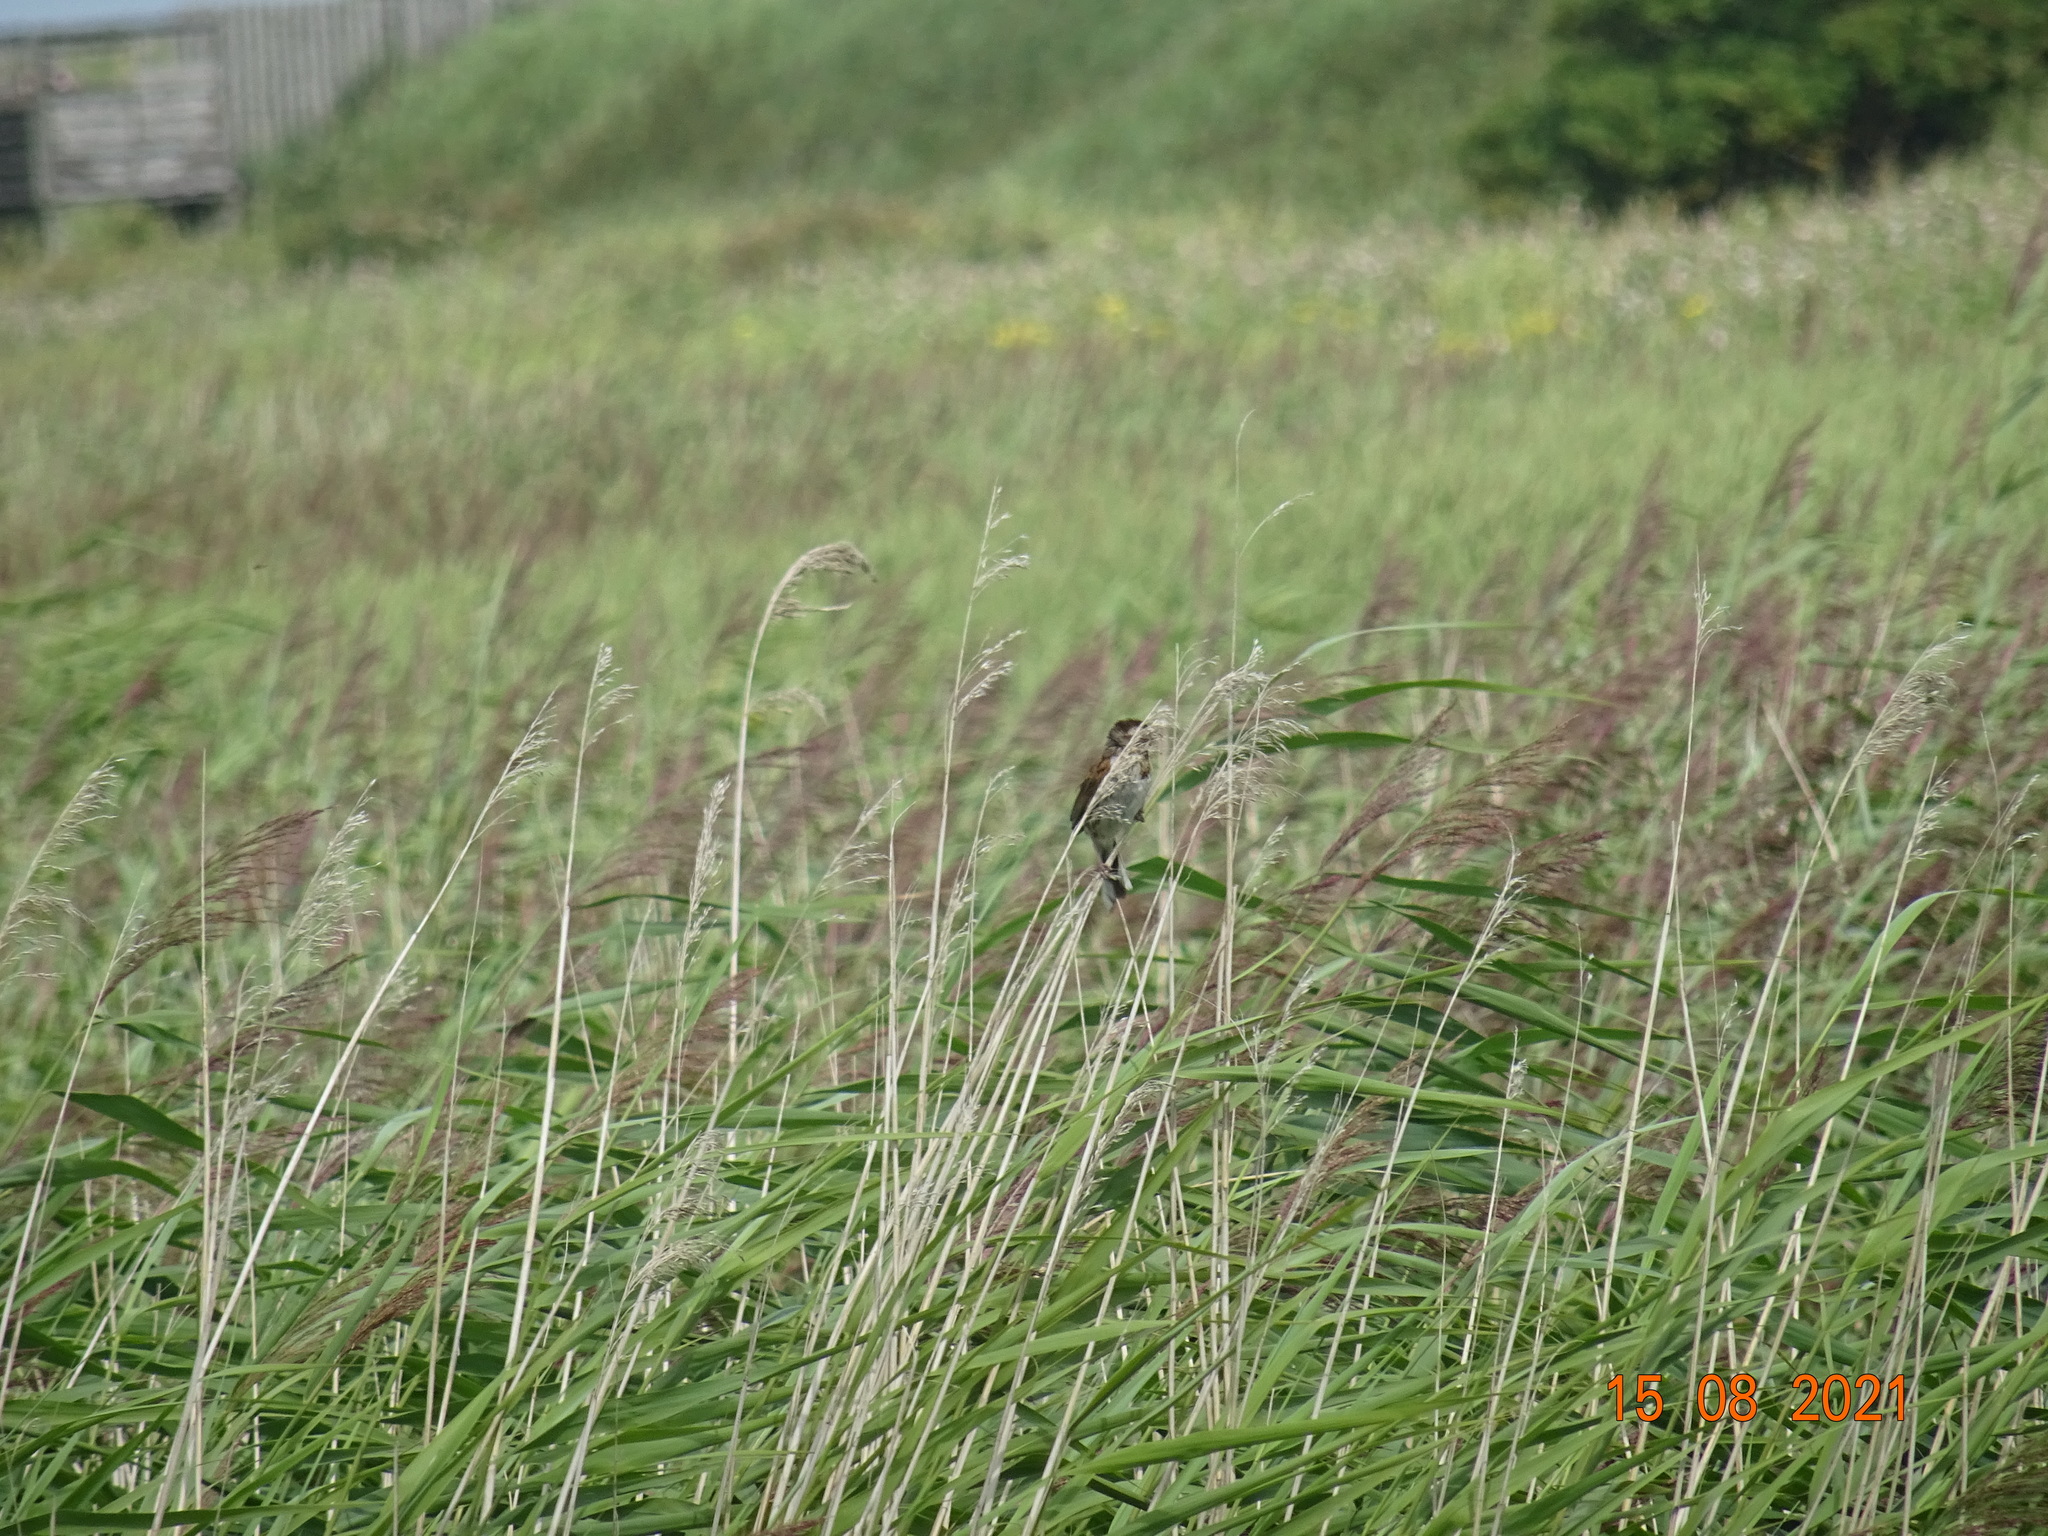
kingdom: Animalia
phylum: Chordata
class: Aves
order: Passeriformes
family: Emberizidae
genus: Emberiza
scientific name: Emberiza schoeniclus
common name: Reed bunting
